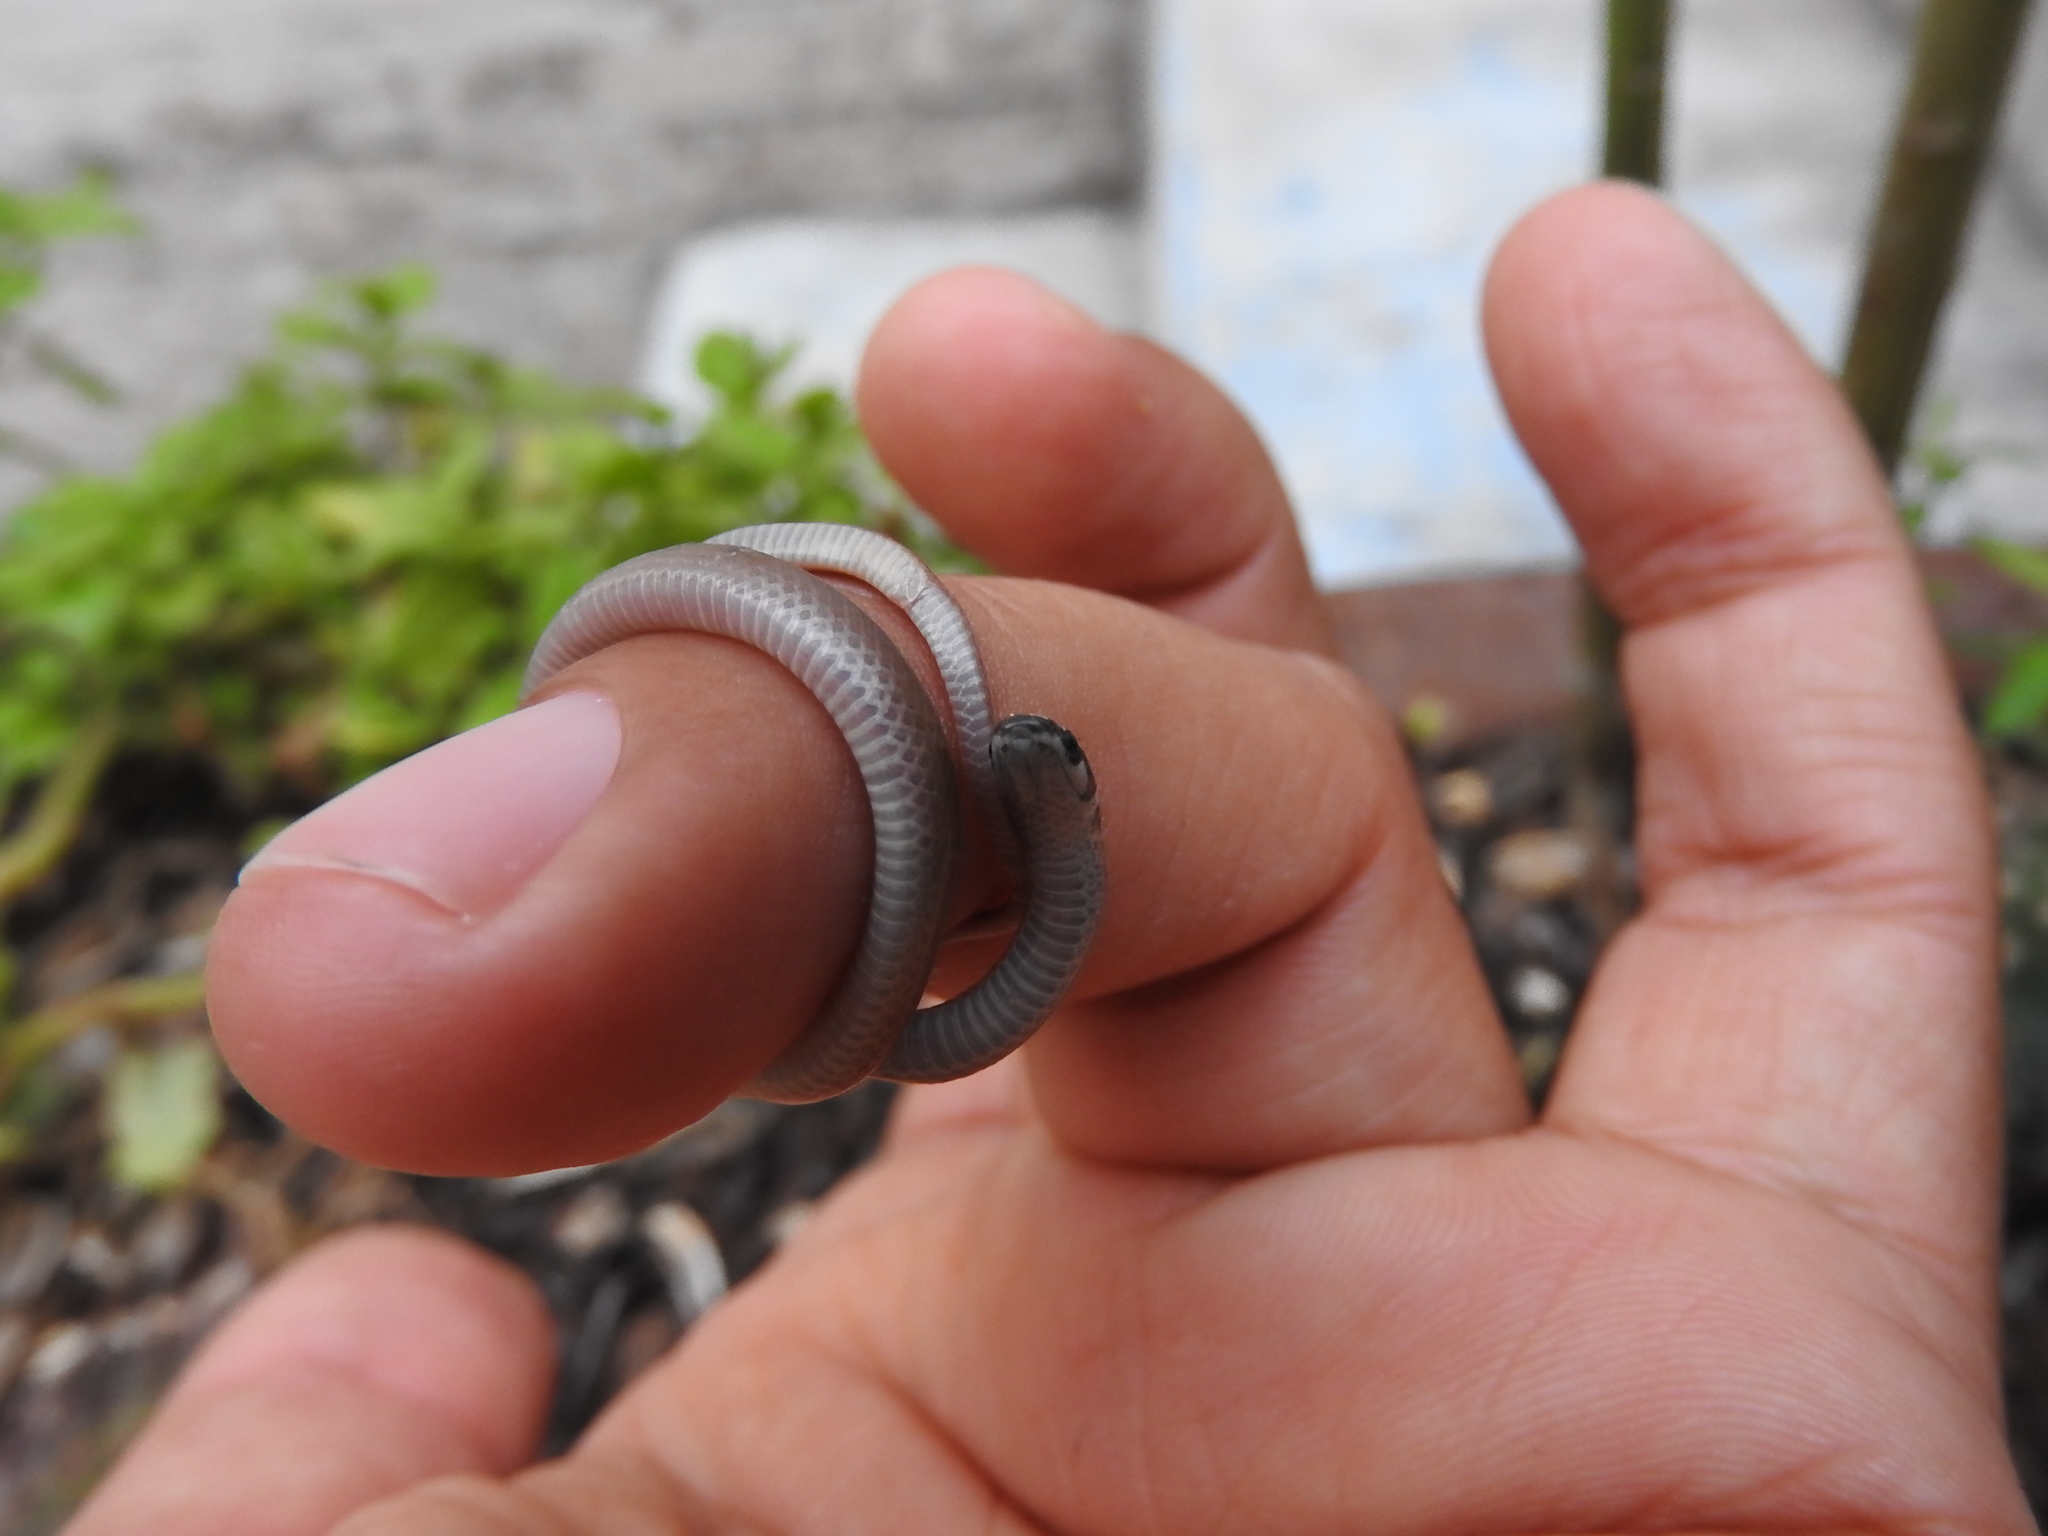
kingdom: Animalia
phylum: Chordata
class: Squamata
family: Colubridae
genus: Tantilla
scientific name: Tantilla bocourti
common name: Bocourt's black-headed snake
